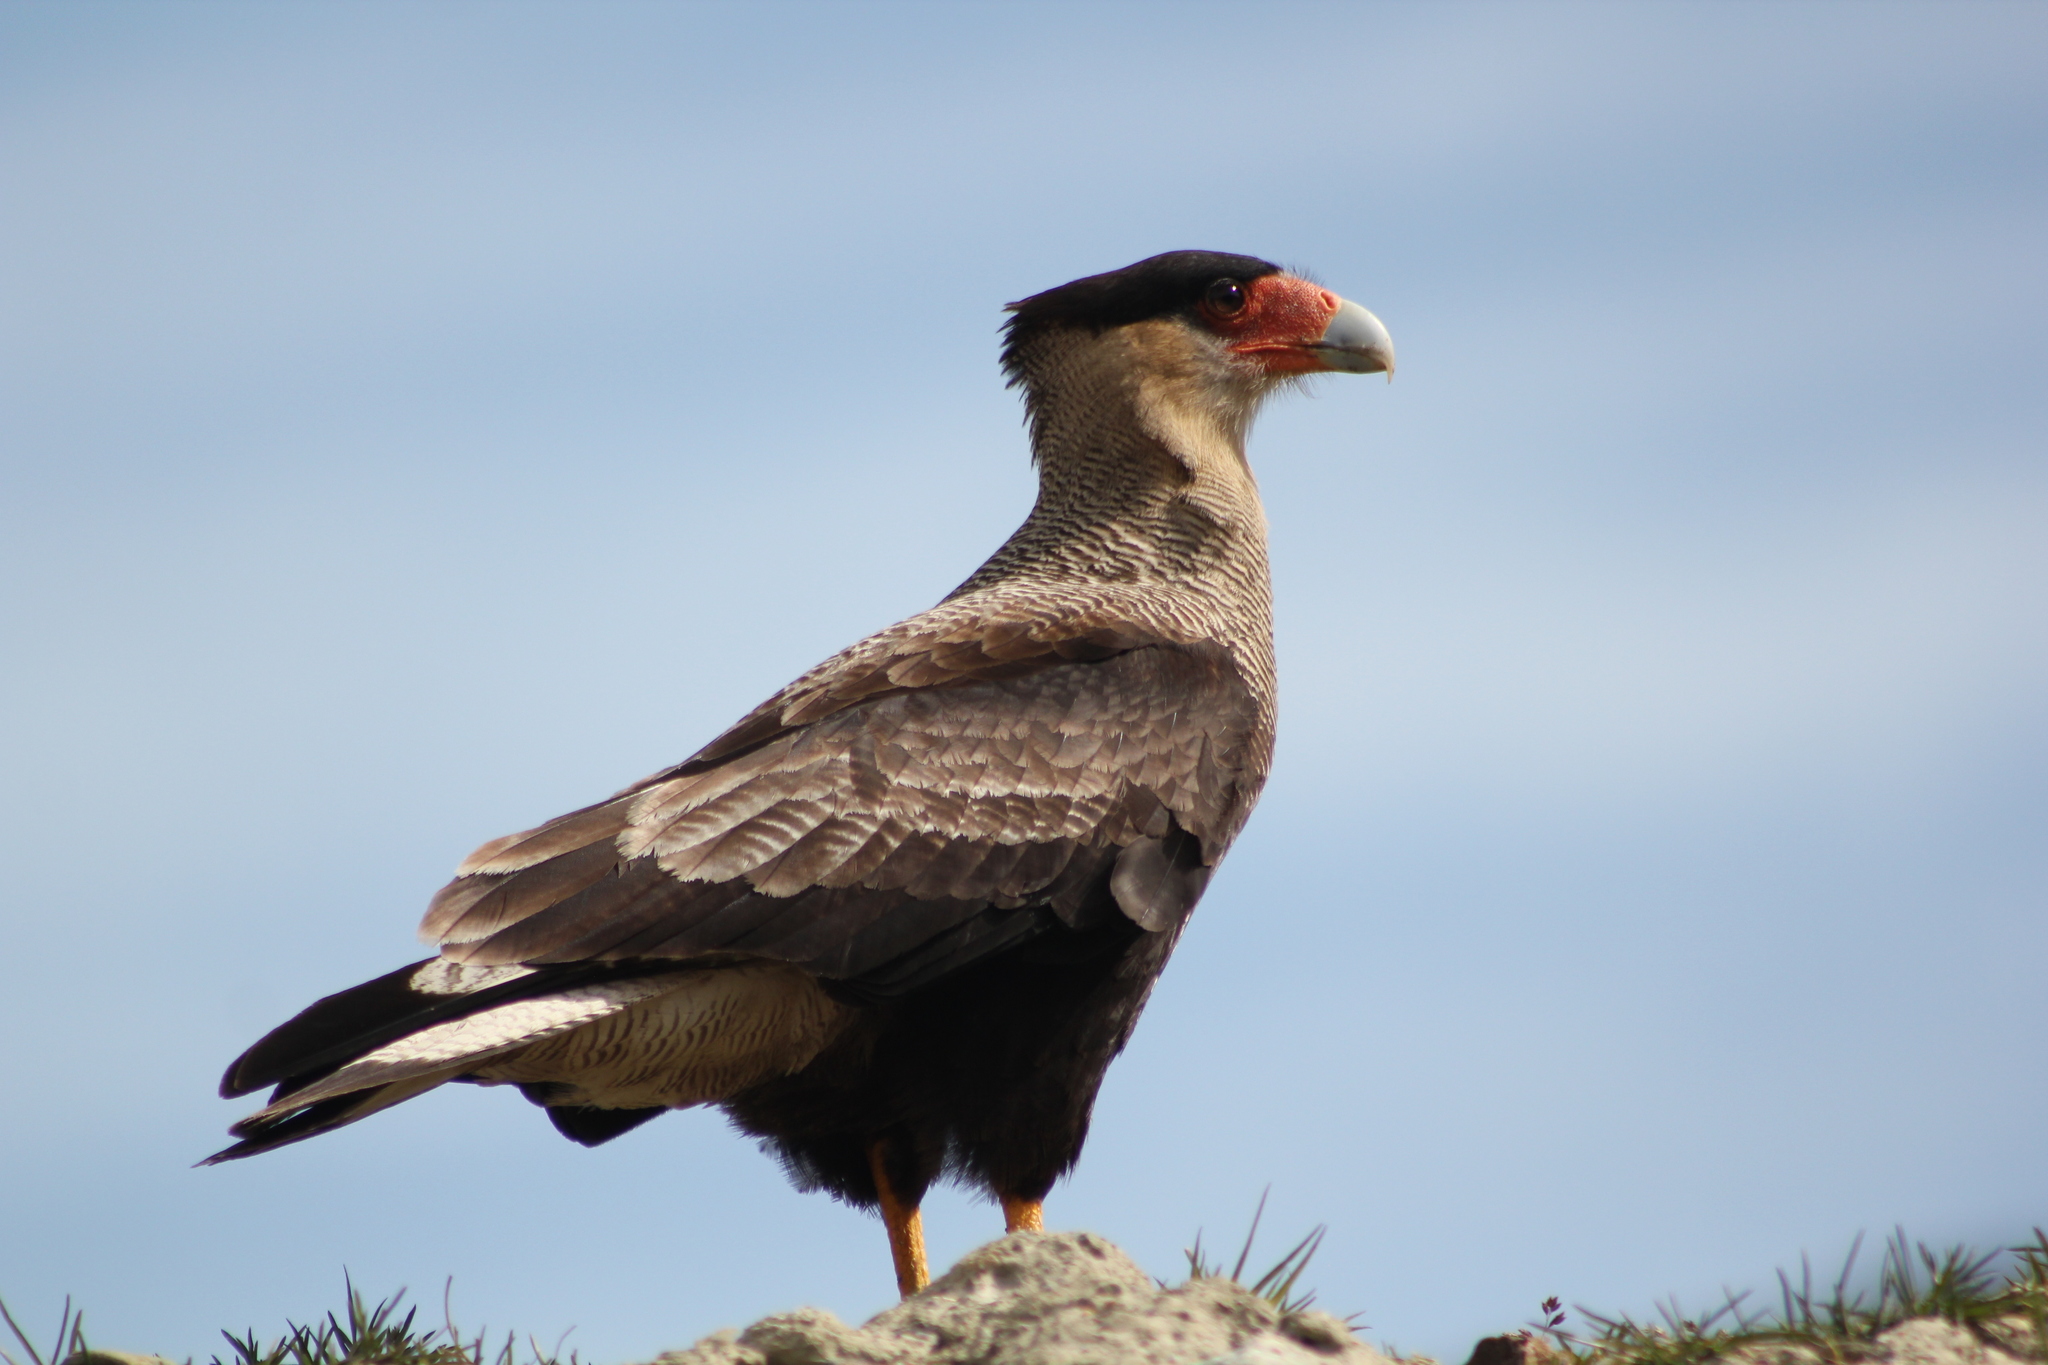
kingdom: Animalia
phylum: Chordata
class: Aves
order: Falconiformes
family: Falconidae
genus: Caracara
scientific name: Caracara plancus
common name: Southern caracara
